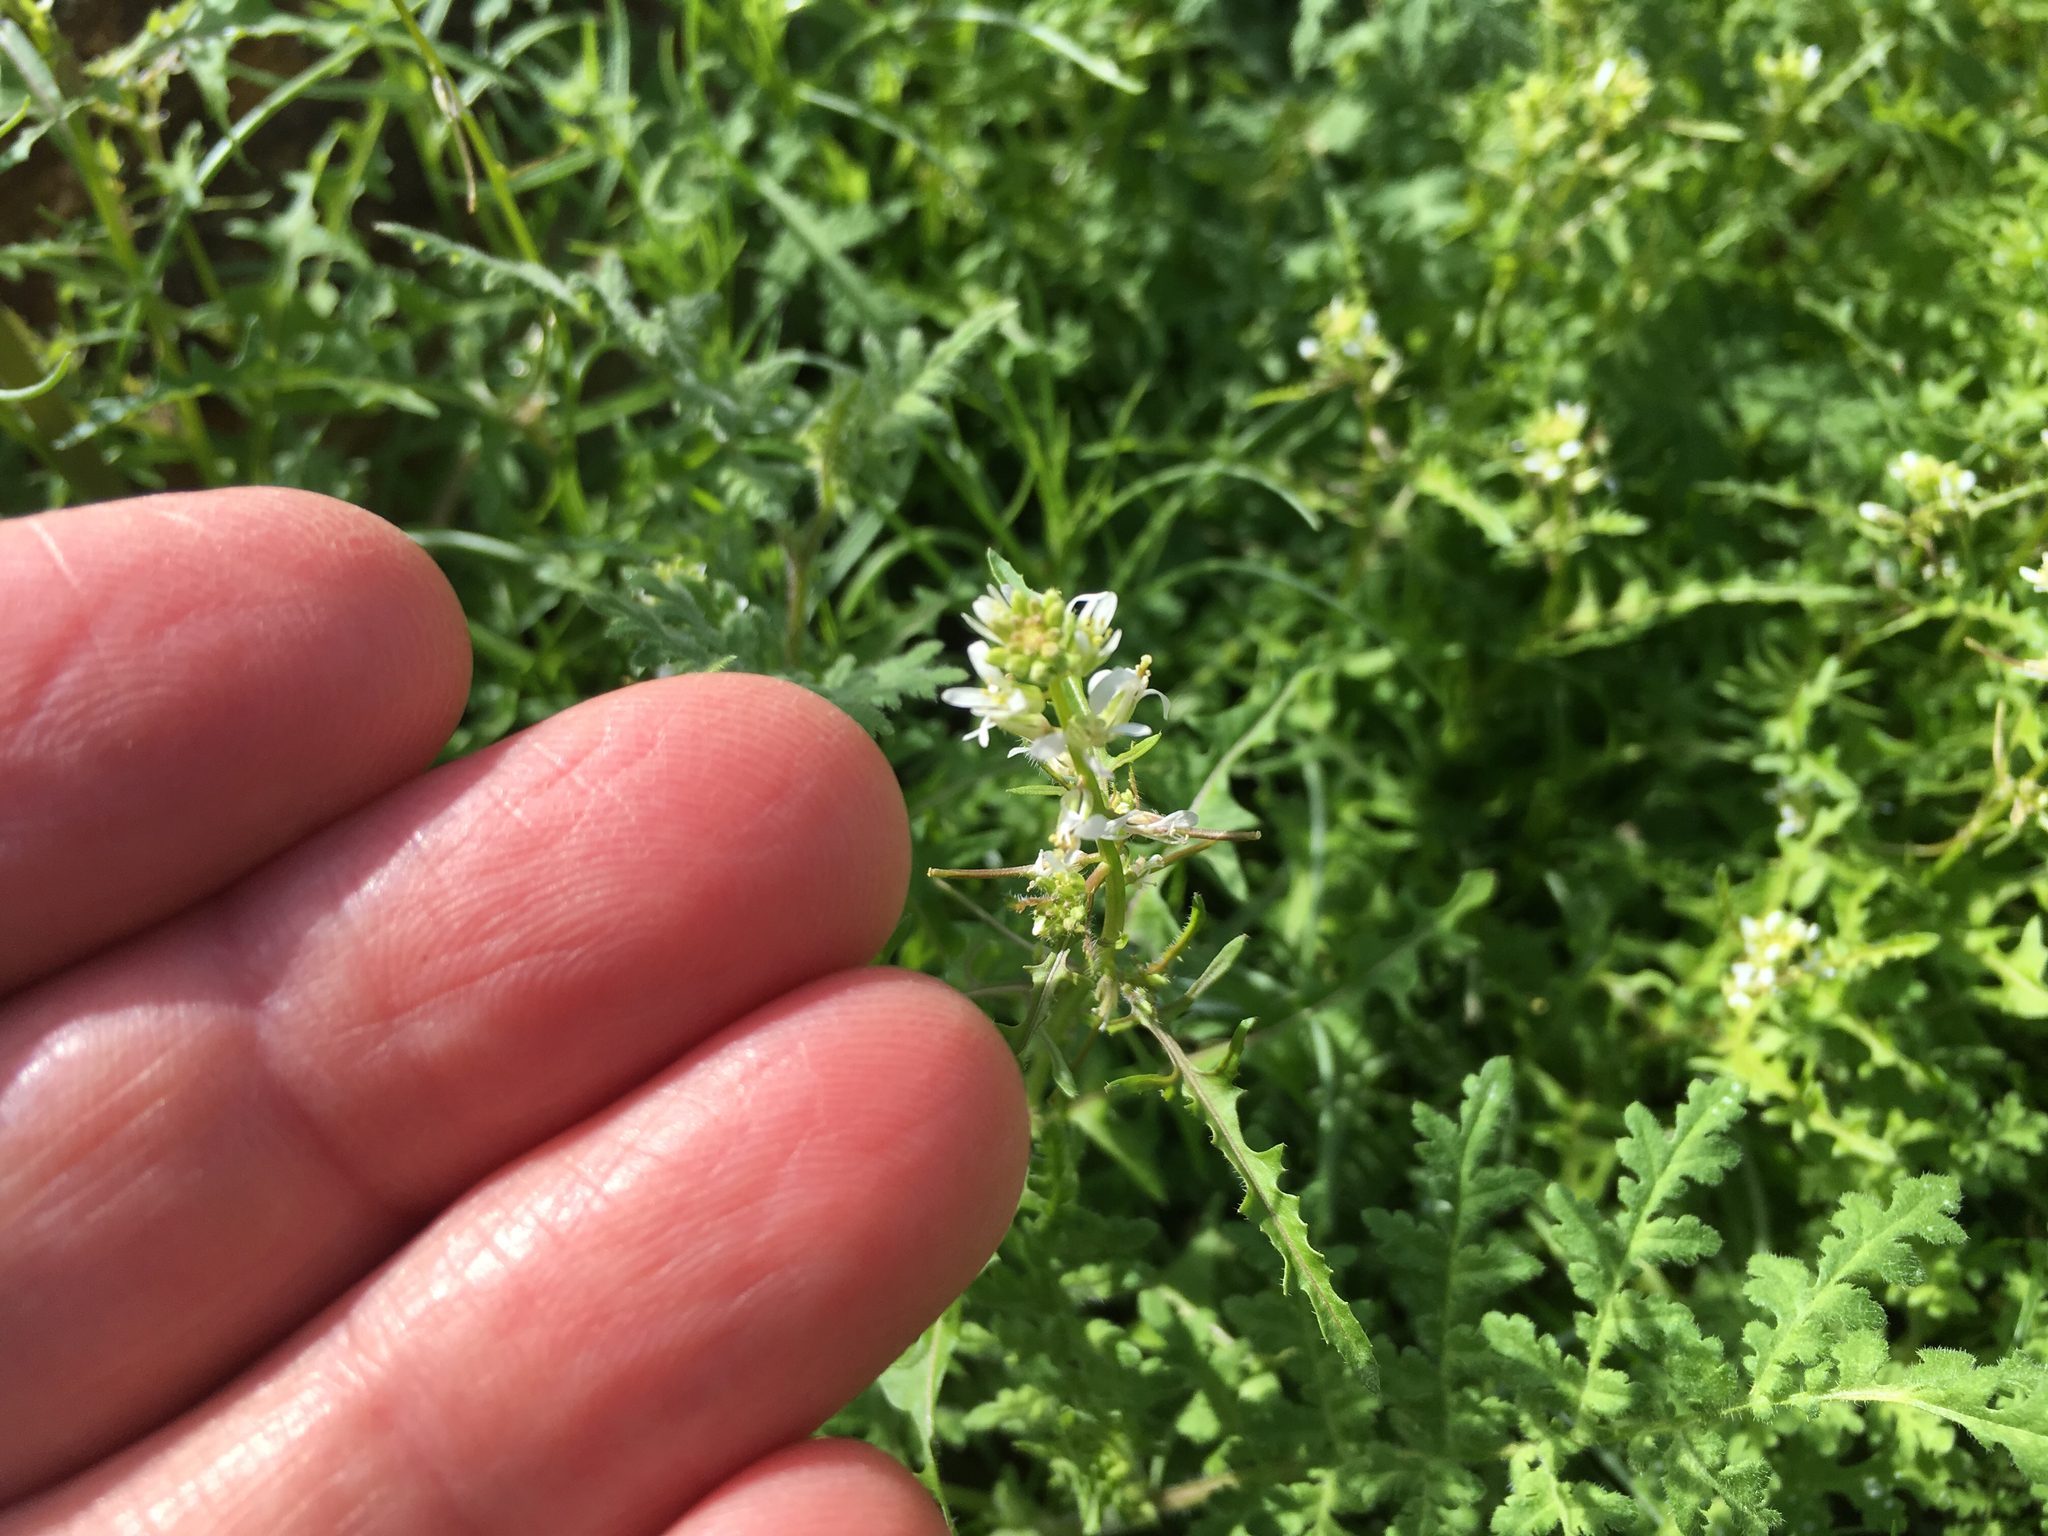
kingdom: Plantae
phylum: Tracheophyta
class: Magnoliopsida
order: Brassicales
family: Brassicaceae
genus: Streptanthus
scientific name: Streptanthus lasiophyllus
